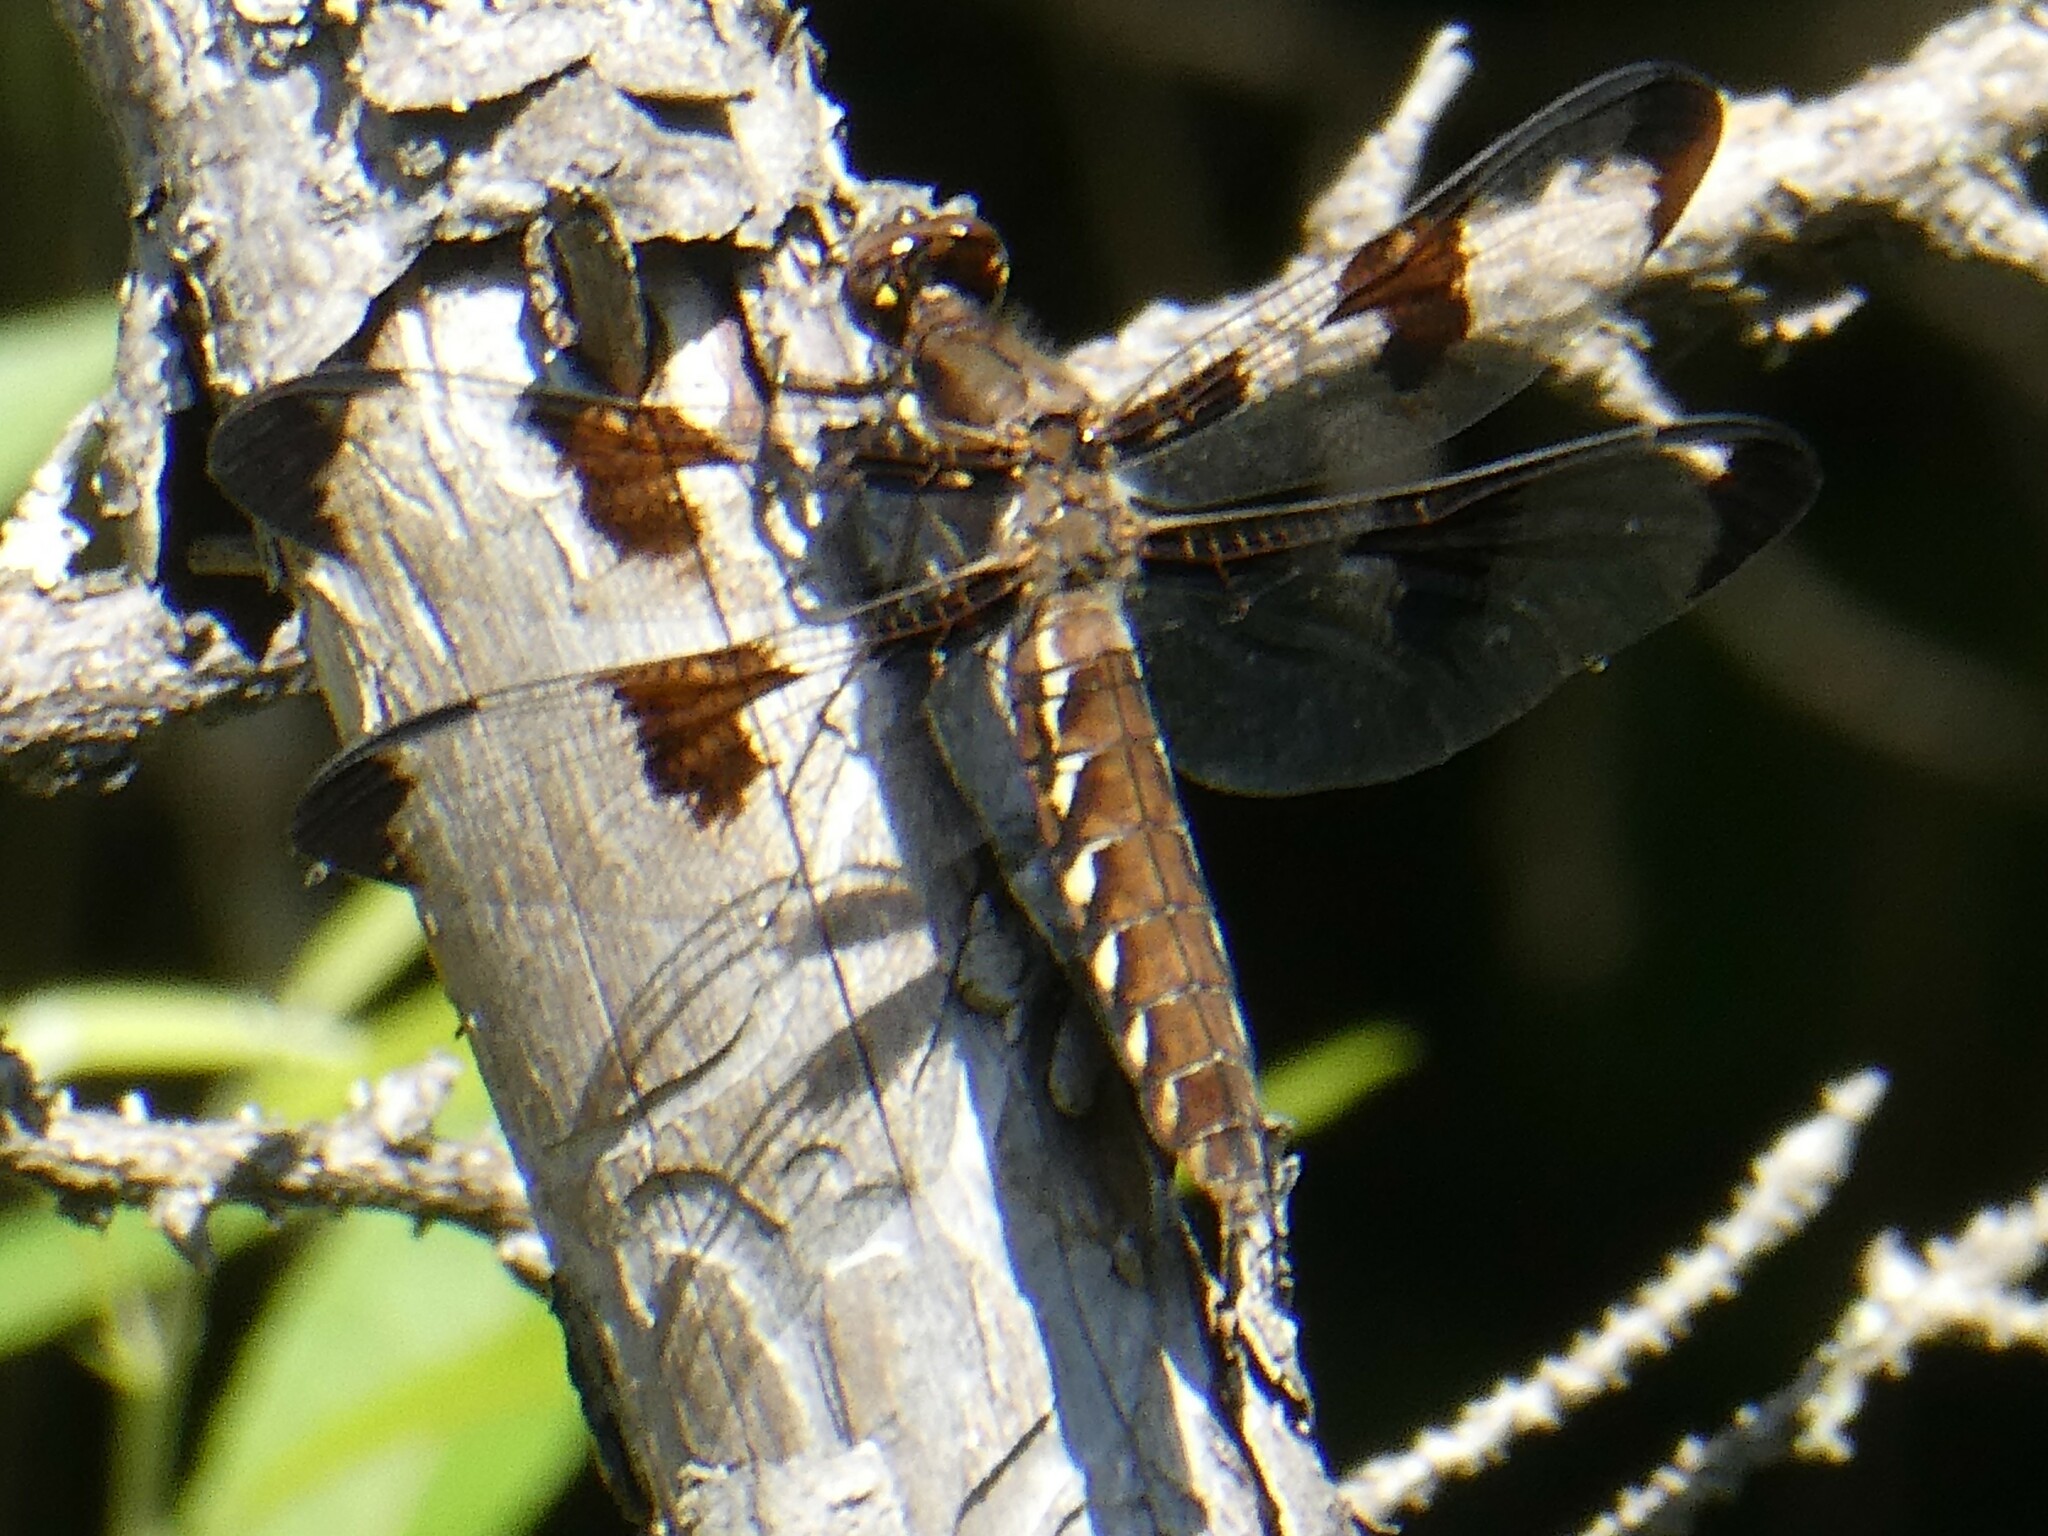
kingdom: Animalia
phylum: Arthropoda
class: Insecta
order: Odonata
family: Libellulidae
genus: Plathemis
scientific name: Plathemis lydia
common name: Common whitetail
